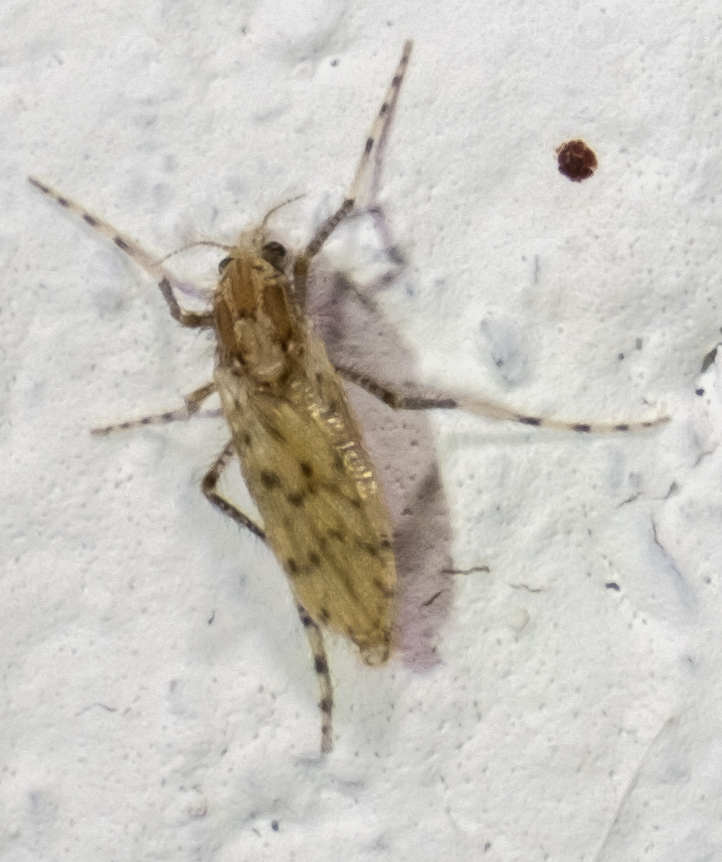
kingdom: Animalia
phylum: Arthropoda
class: Insecta
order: Diptera
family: Chaoboridae
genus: Chaoborus
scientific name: Chaoborus punctipennis
